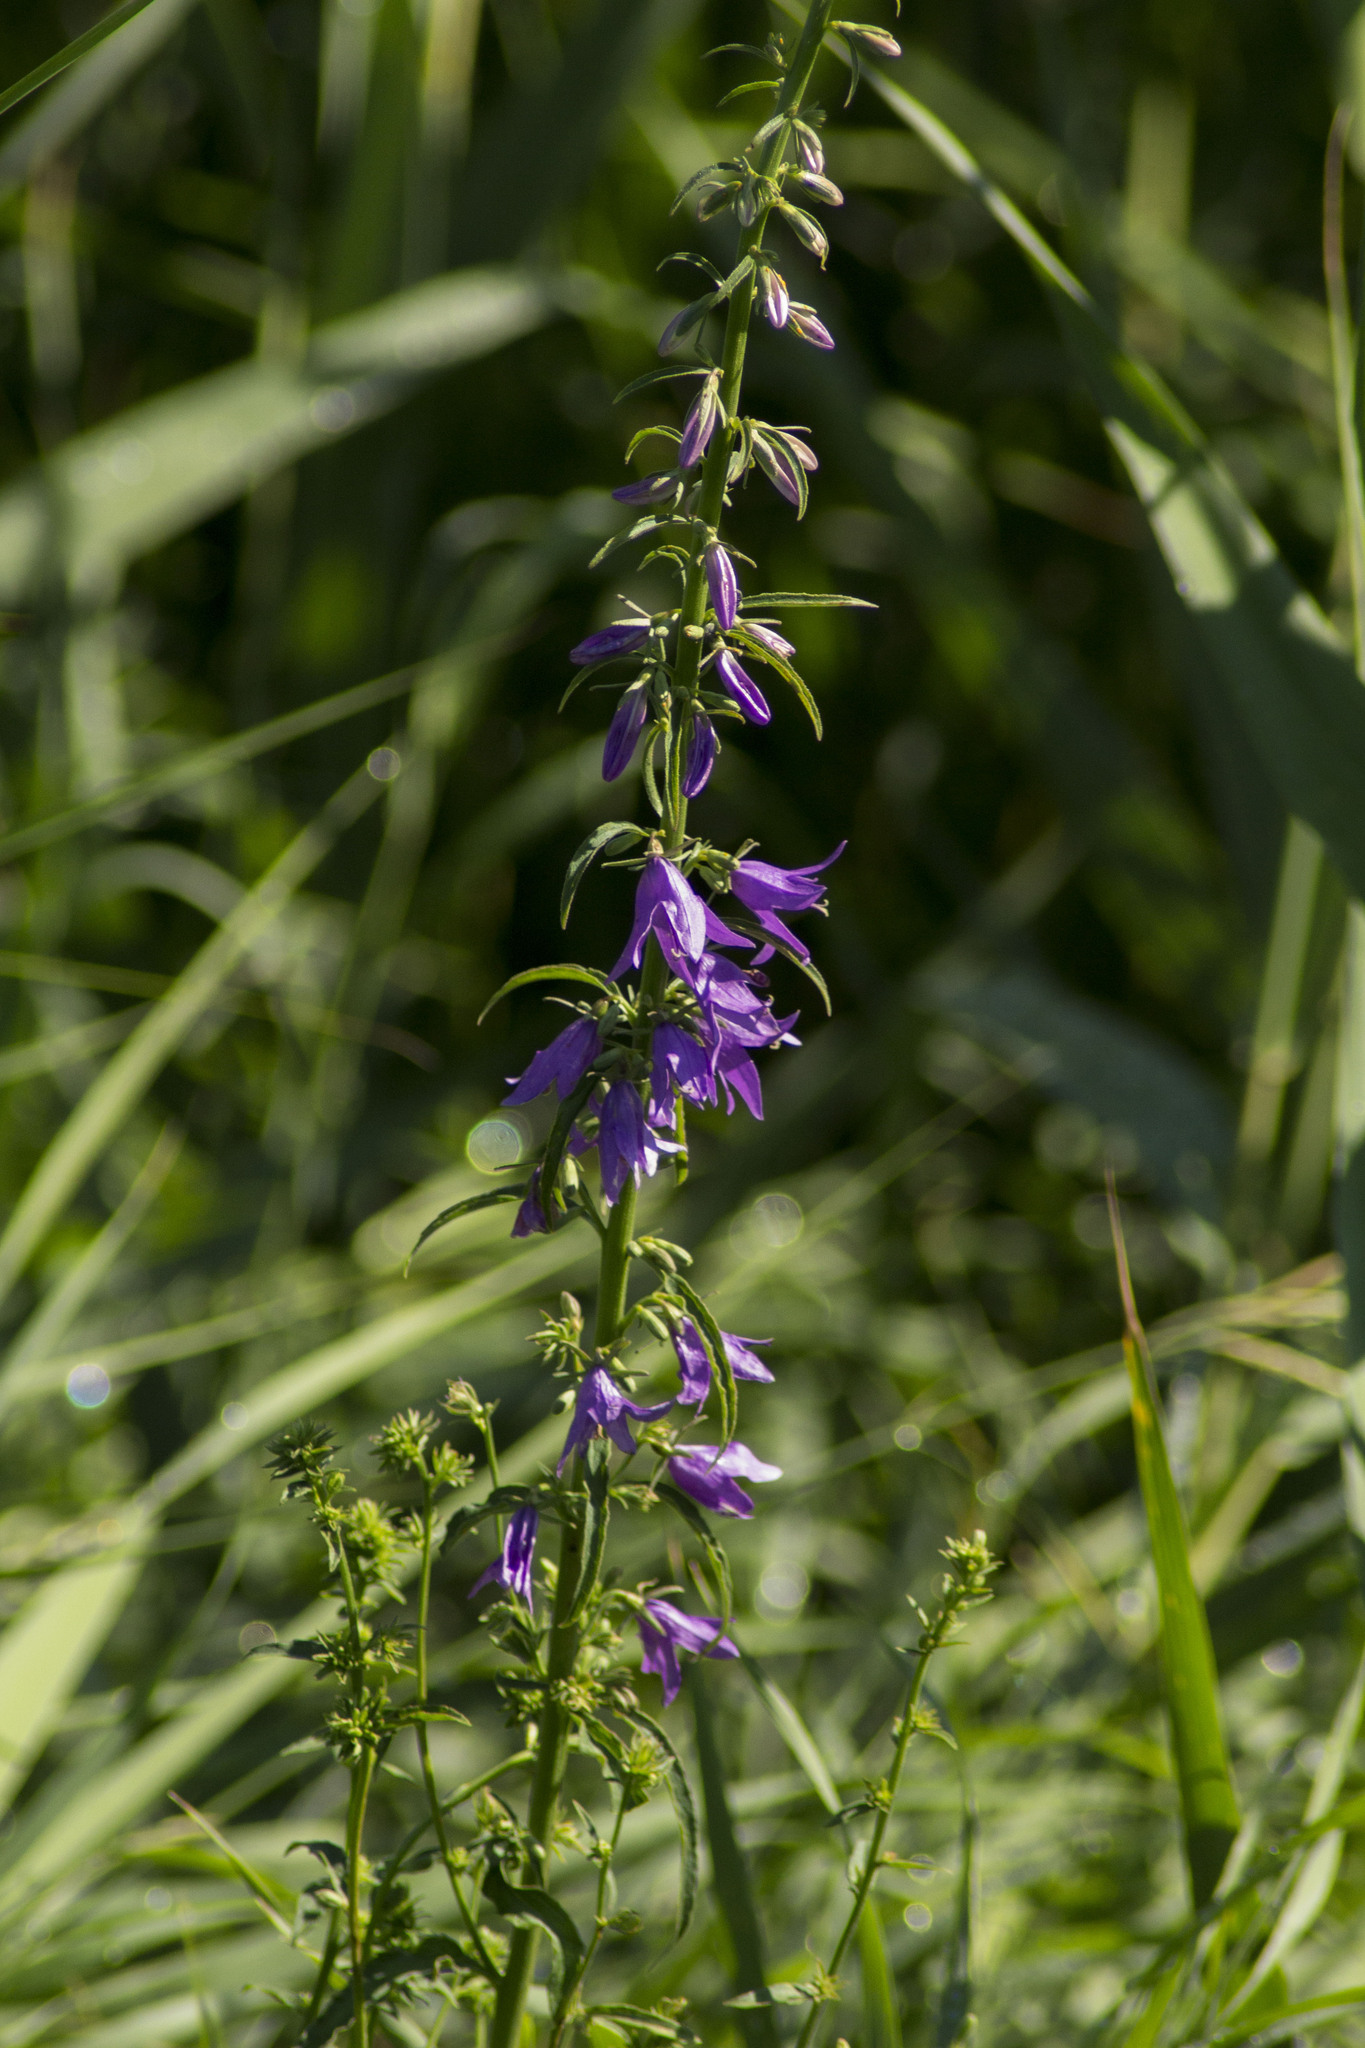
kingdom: Plantae
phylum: Tracheophyta
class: Magnoliopsida
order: Asterales
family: Campanulaceae
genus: Campanula
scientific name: Campanula bononiensis
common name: Pale bellflower
